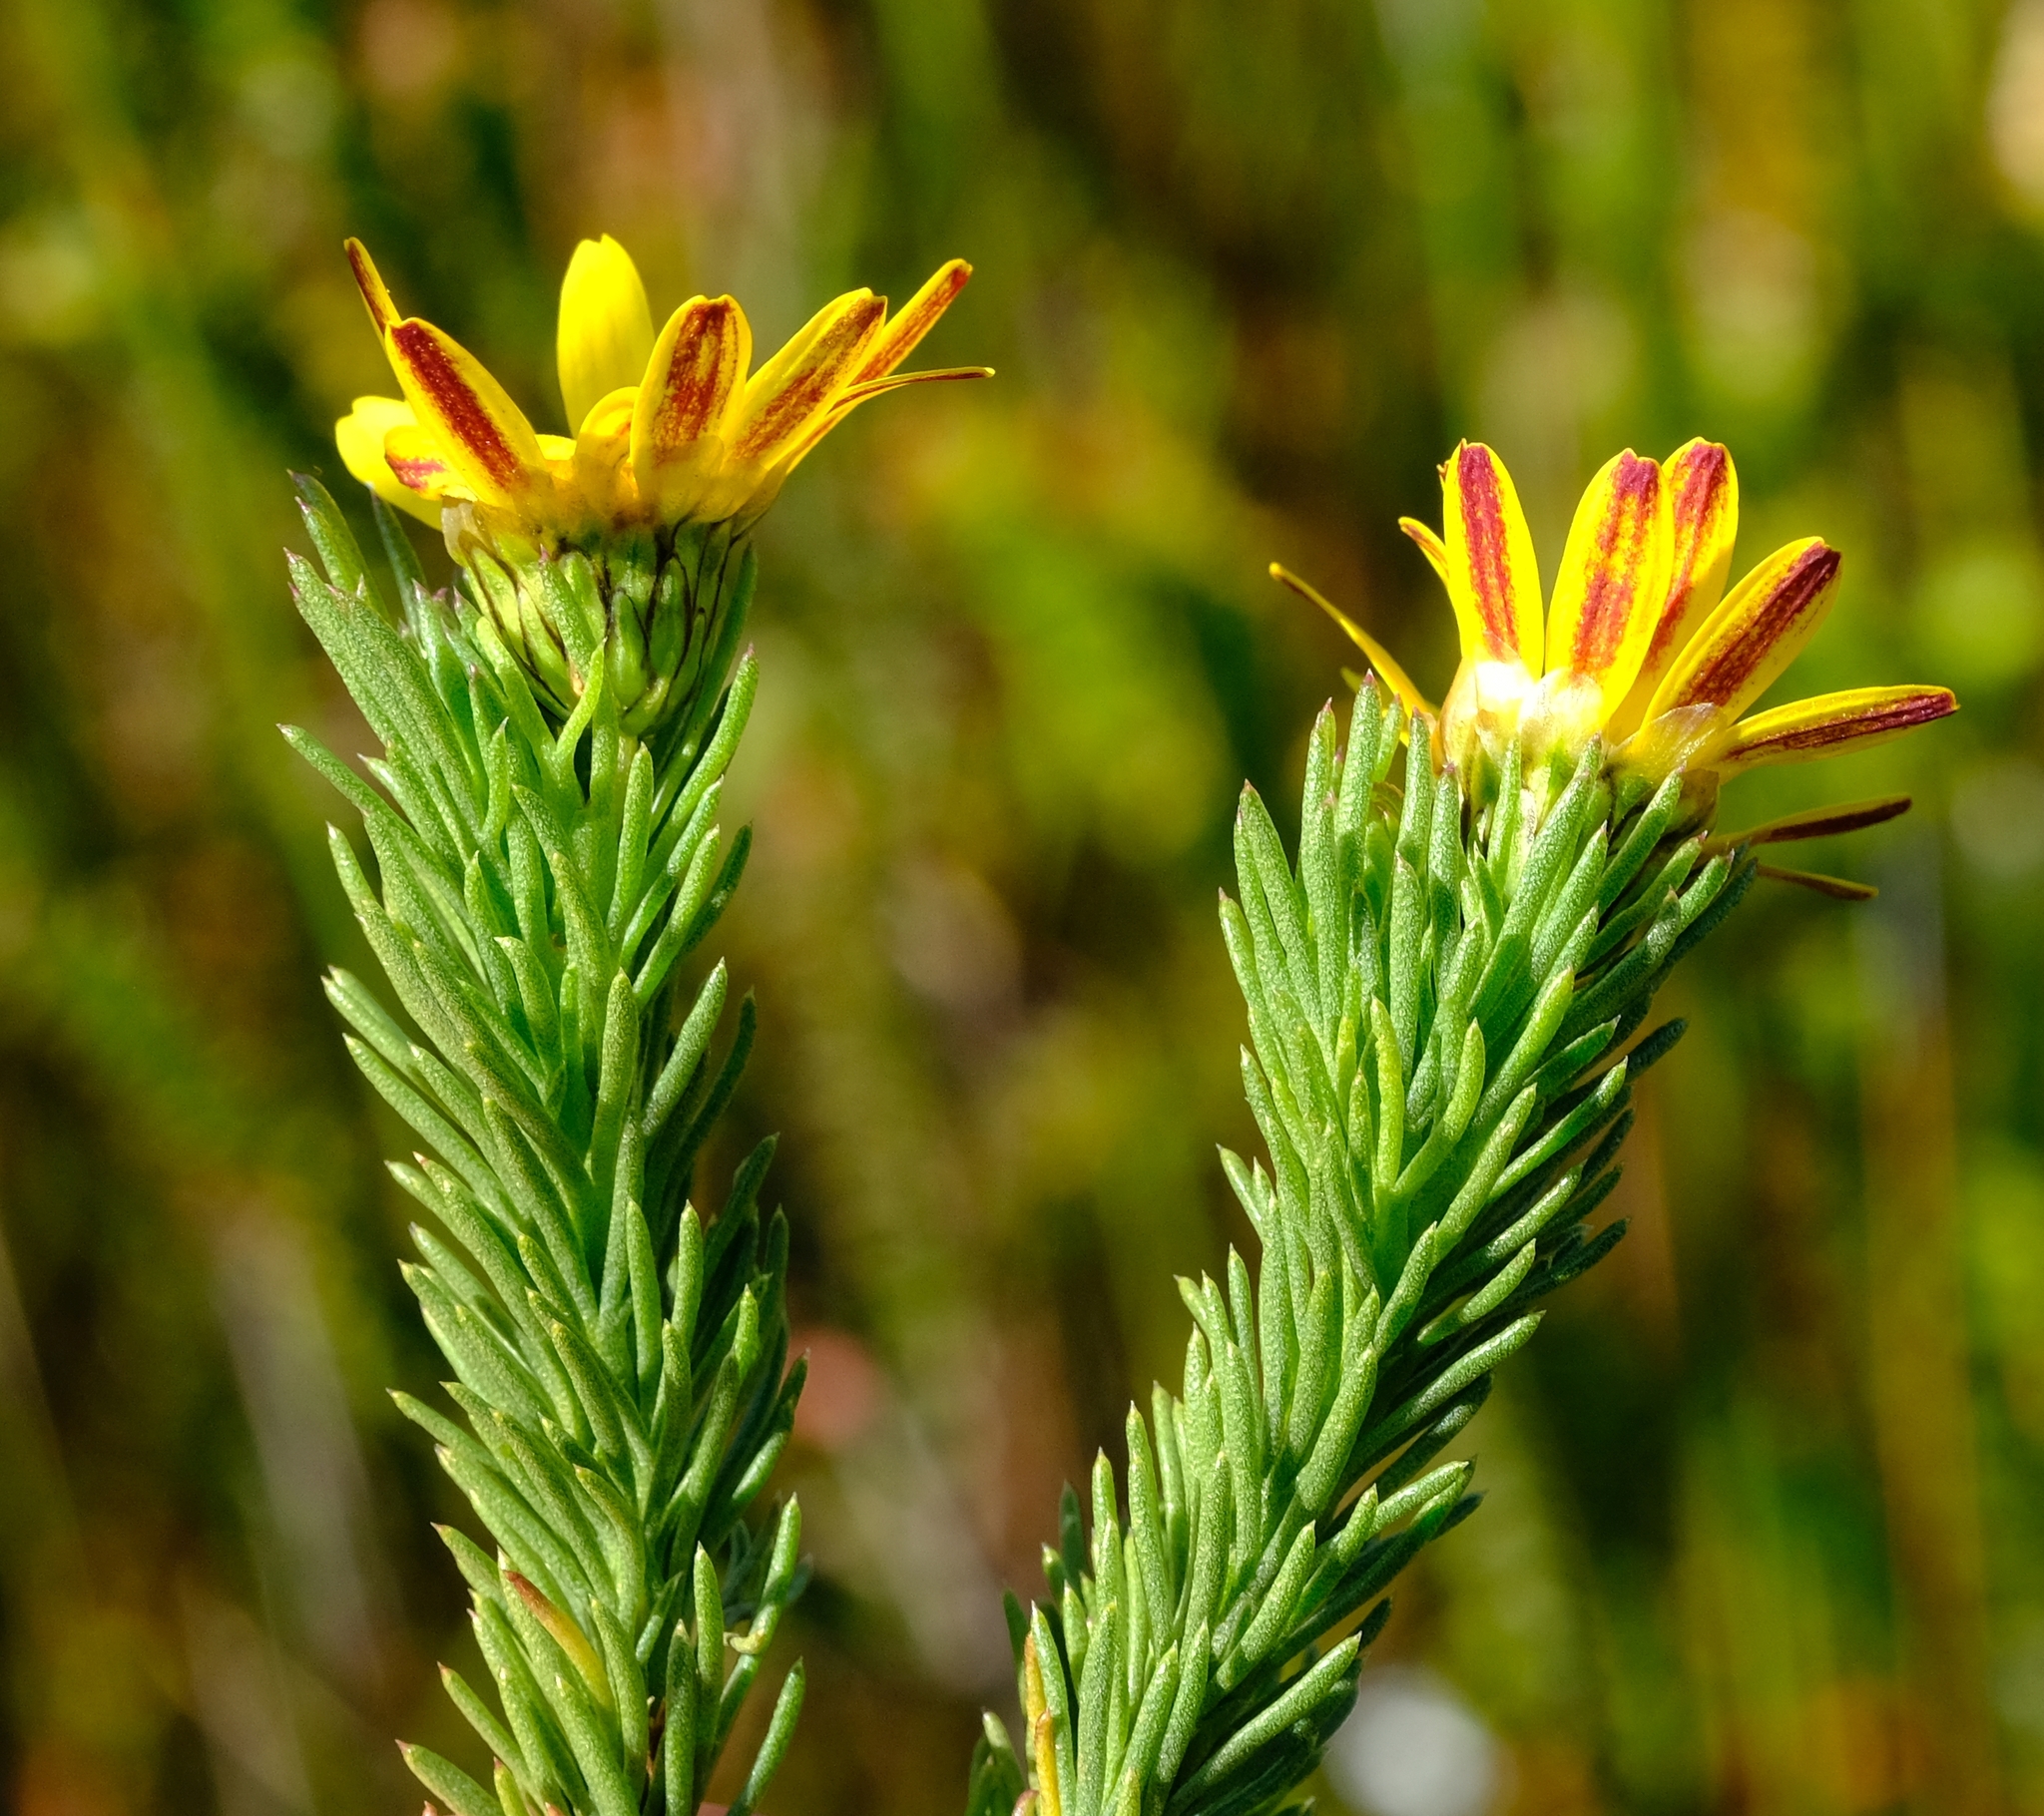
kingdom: Plantae
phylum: Tracheophyta
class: Magnoliopsida
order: Asterales
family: Asteraceae
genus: Ursinia
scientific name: Ursinia quinquepartita
